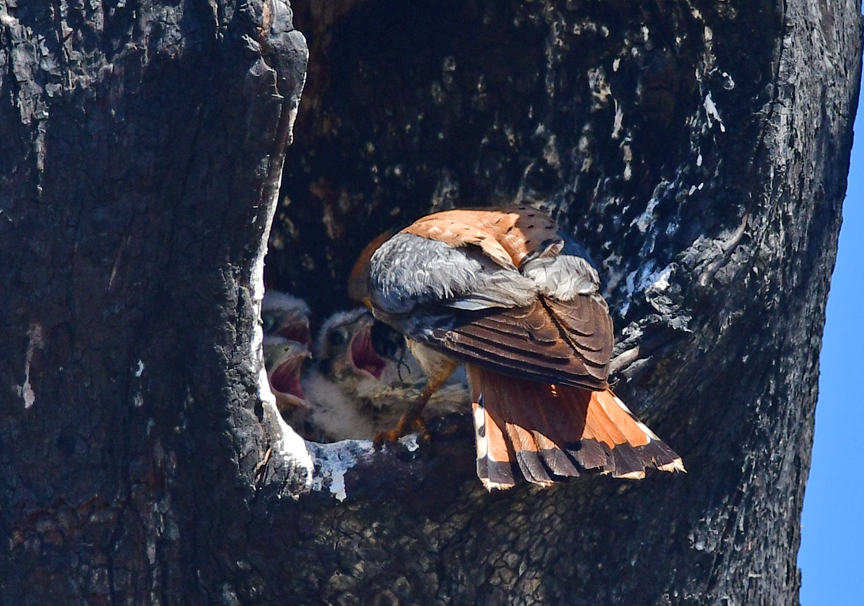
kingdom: Animalia
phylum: Chordata
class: Aves
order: Falconiformes
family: Falconidae
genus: Falco
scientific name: Falco sparverius
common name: American kestrel
